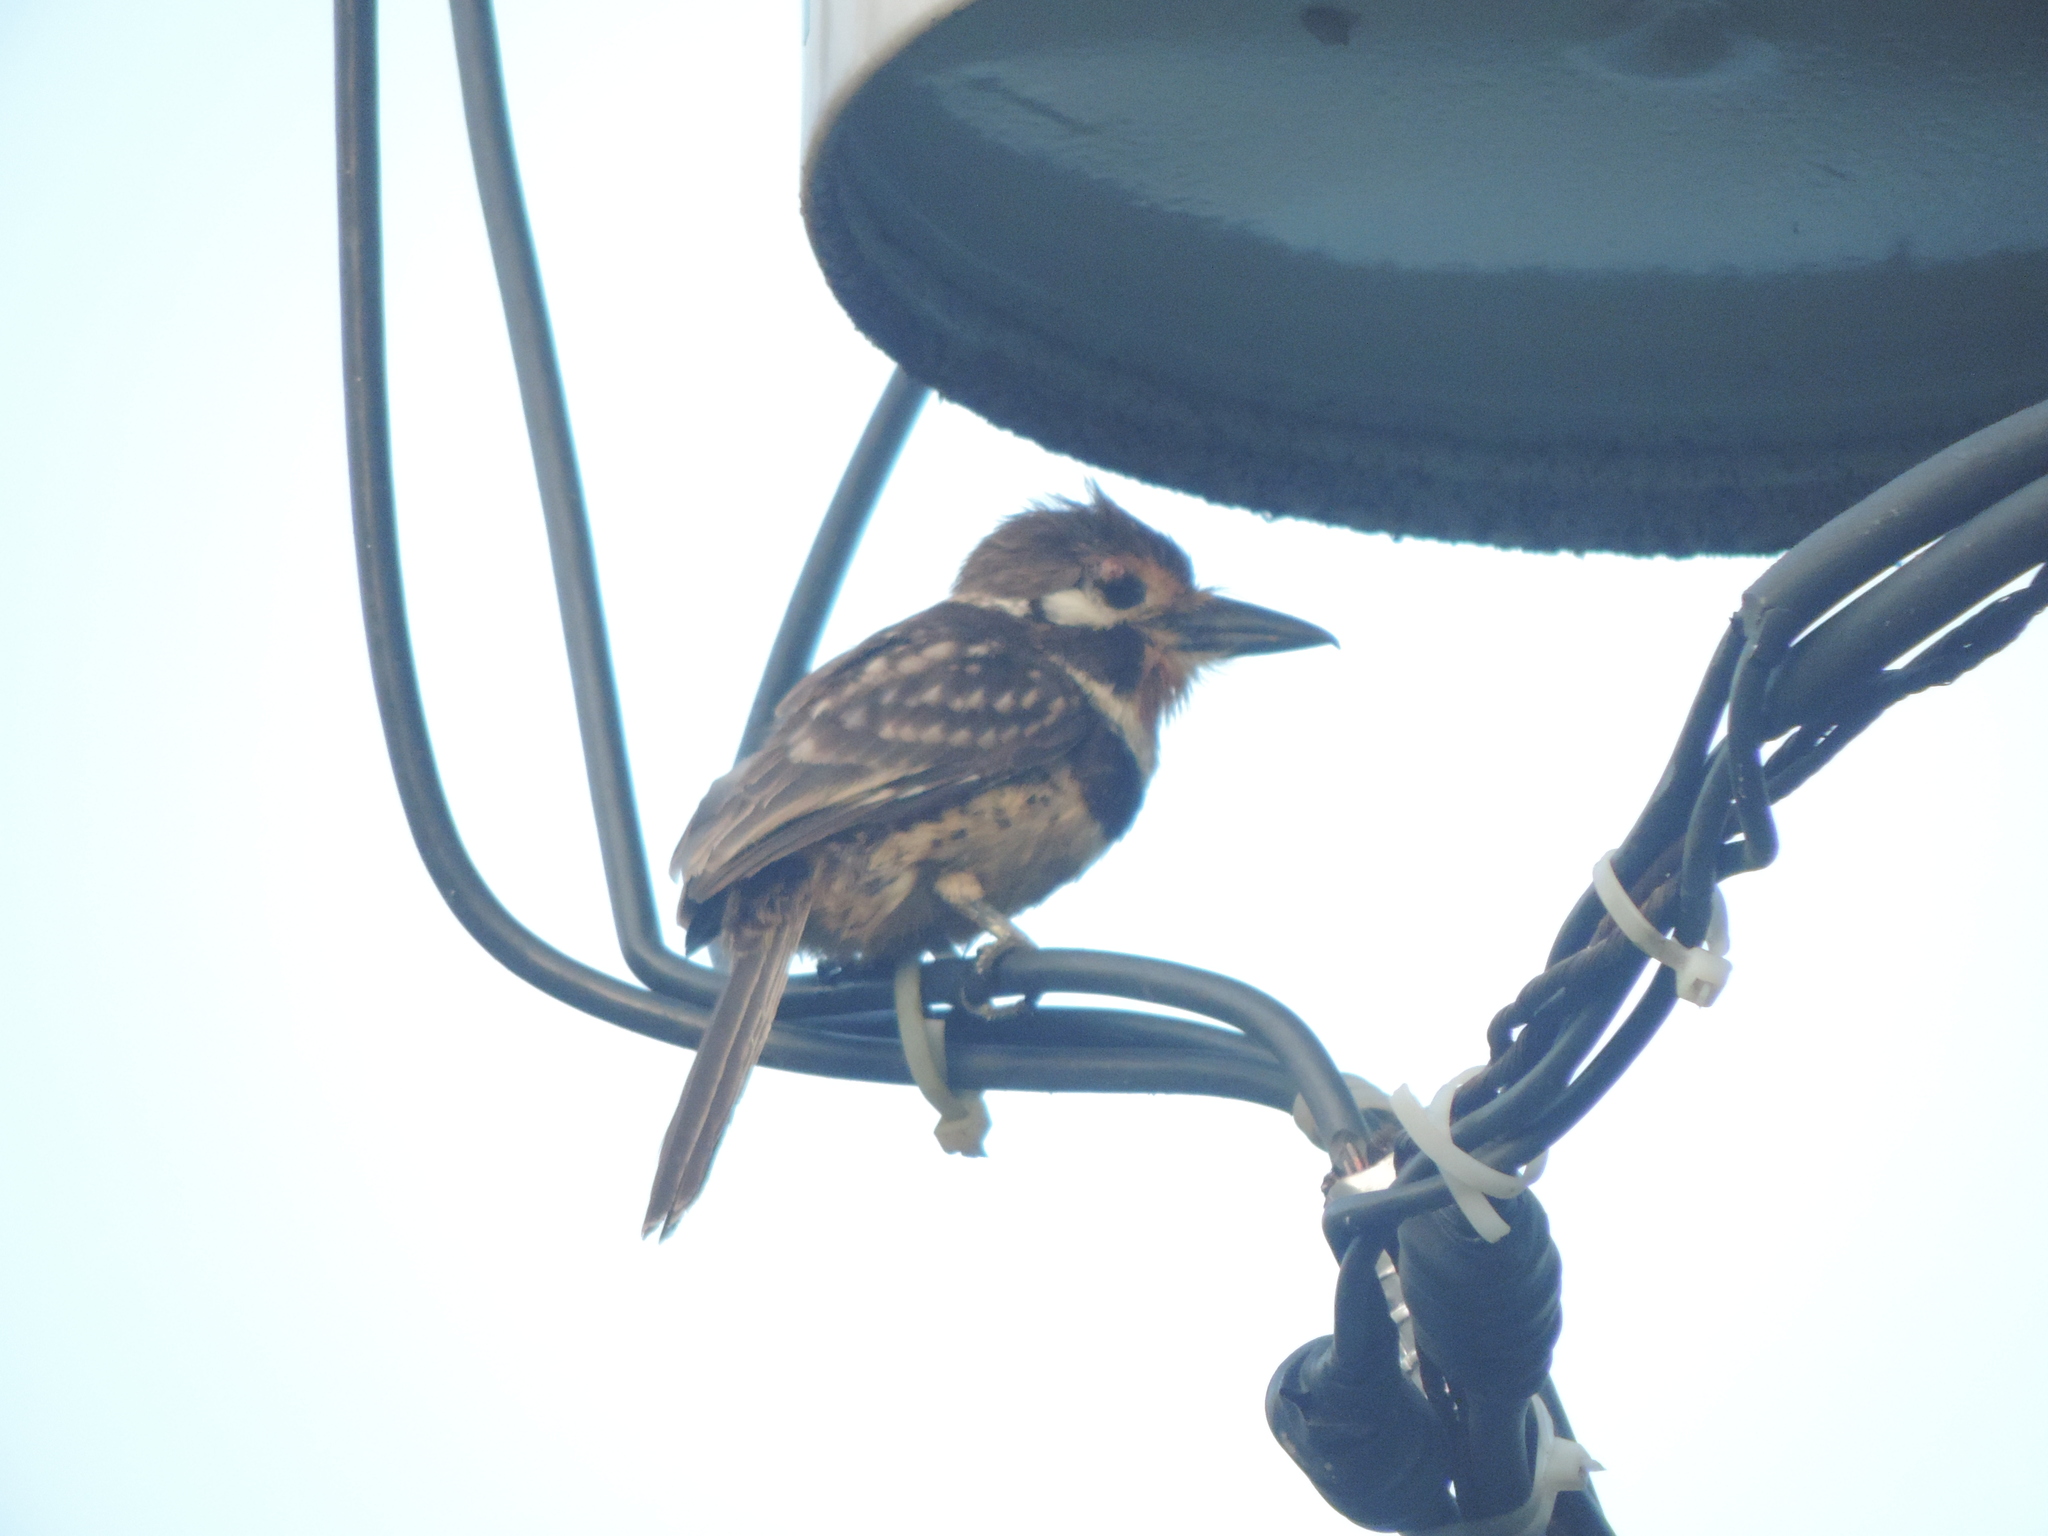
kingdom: Animalia
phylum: Chordata
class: Aves
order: Piciformes
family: Bucconidae
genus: Hypnelus
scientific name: Hypnelus ruficollis
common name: Russet-throated puffbird
